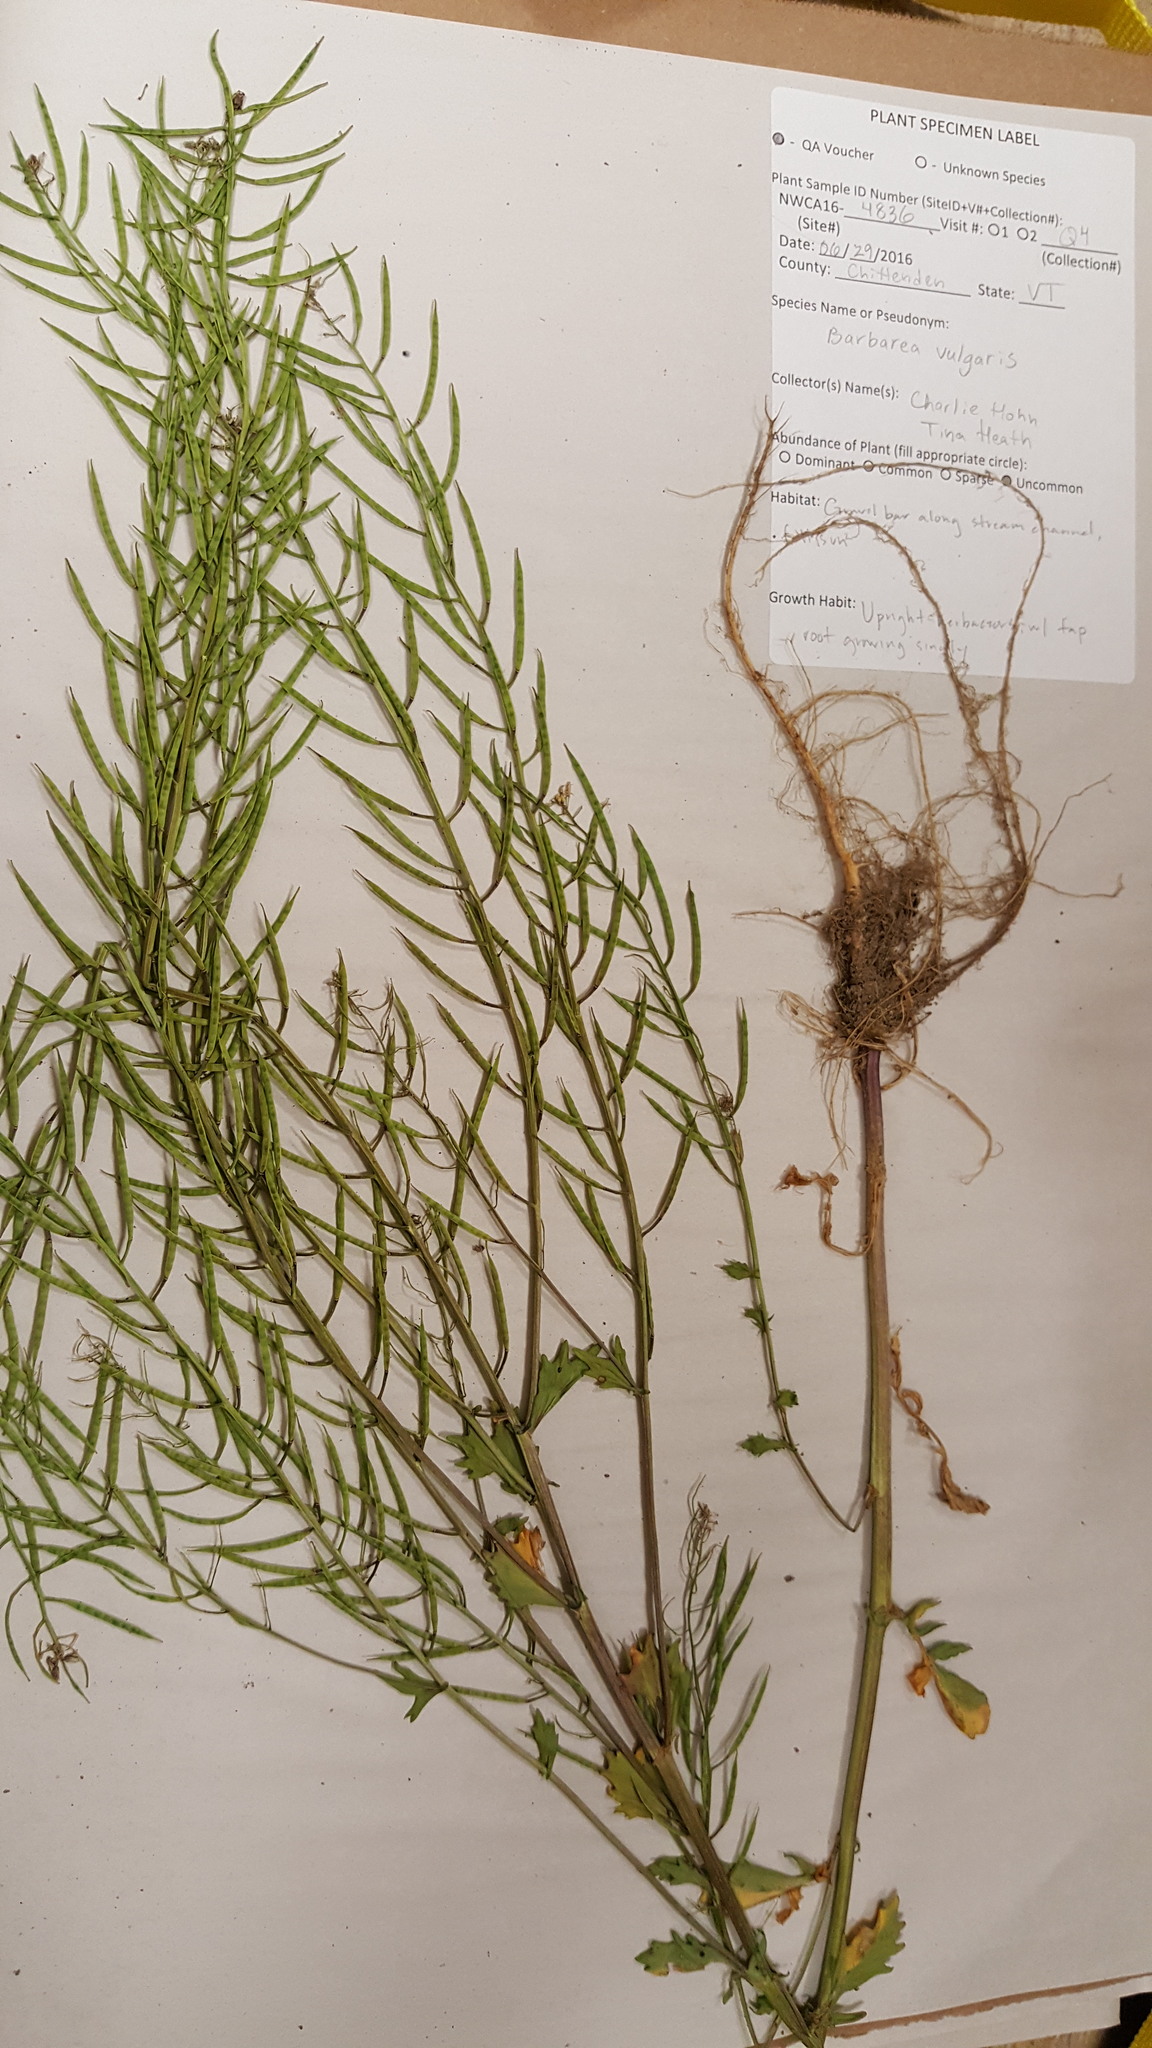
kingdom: Plantae
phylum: Tracheophyta
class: Magnoliopsida
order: Brassicales
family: Brassicaceae
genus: Barbarea
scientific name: Barbarea vulgaris
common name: Cressy-greens
